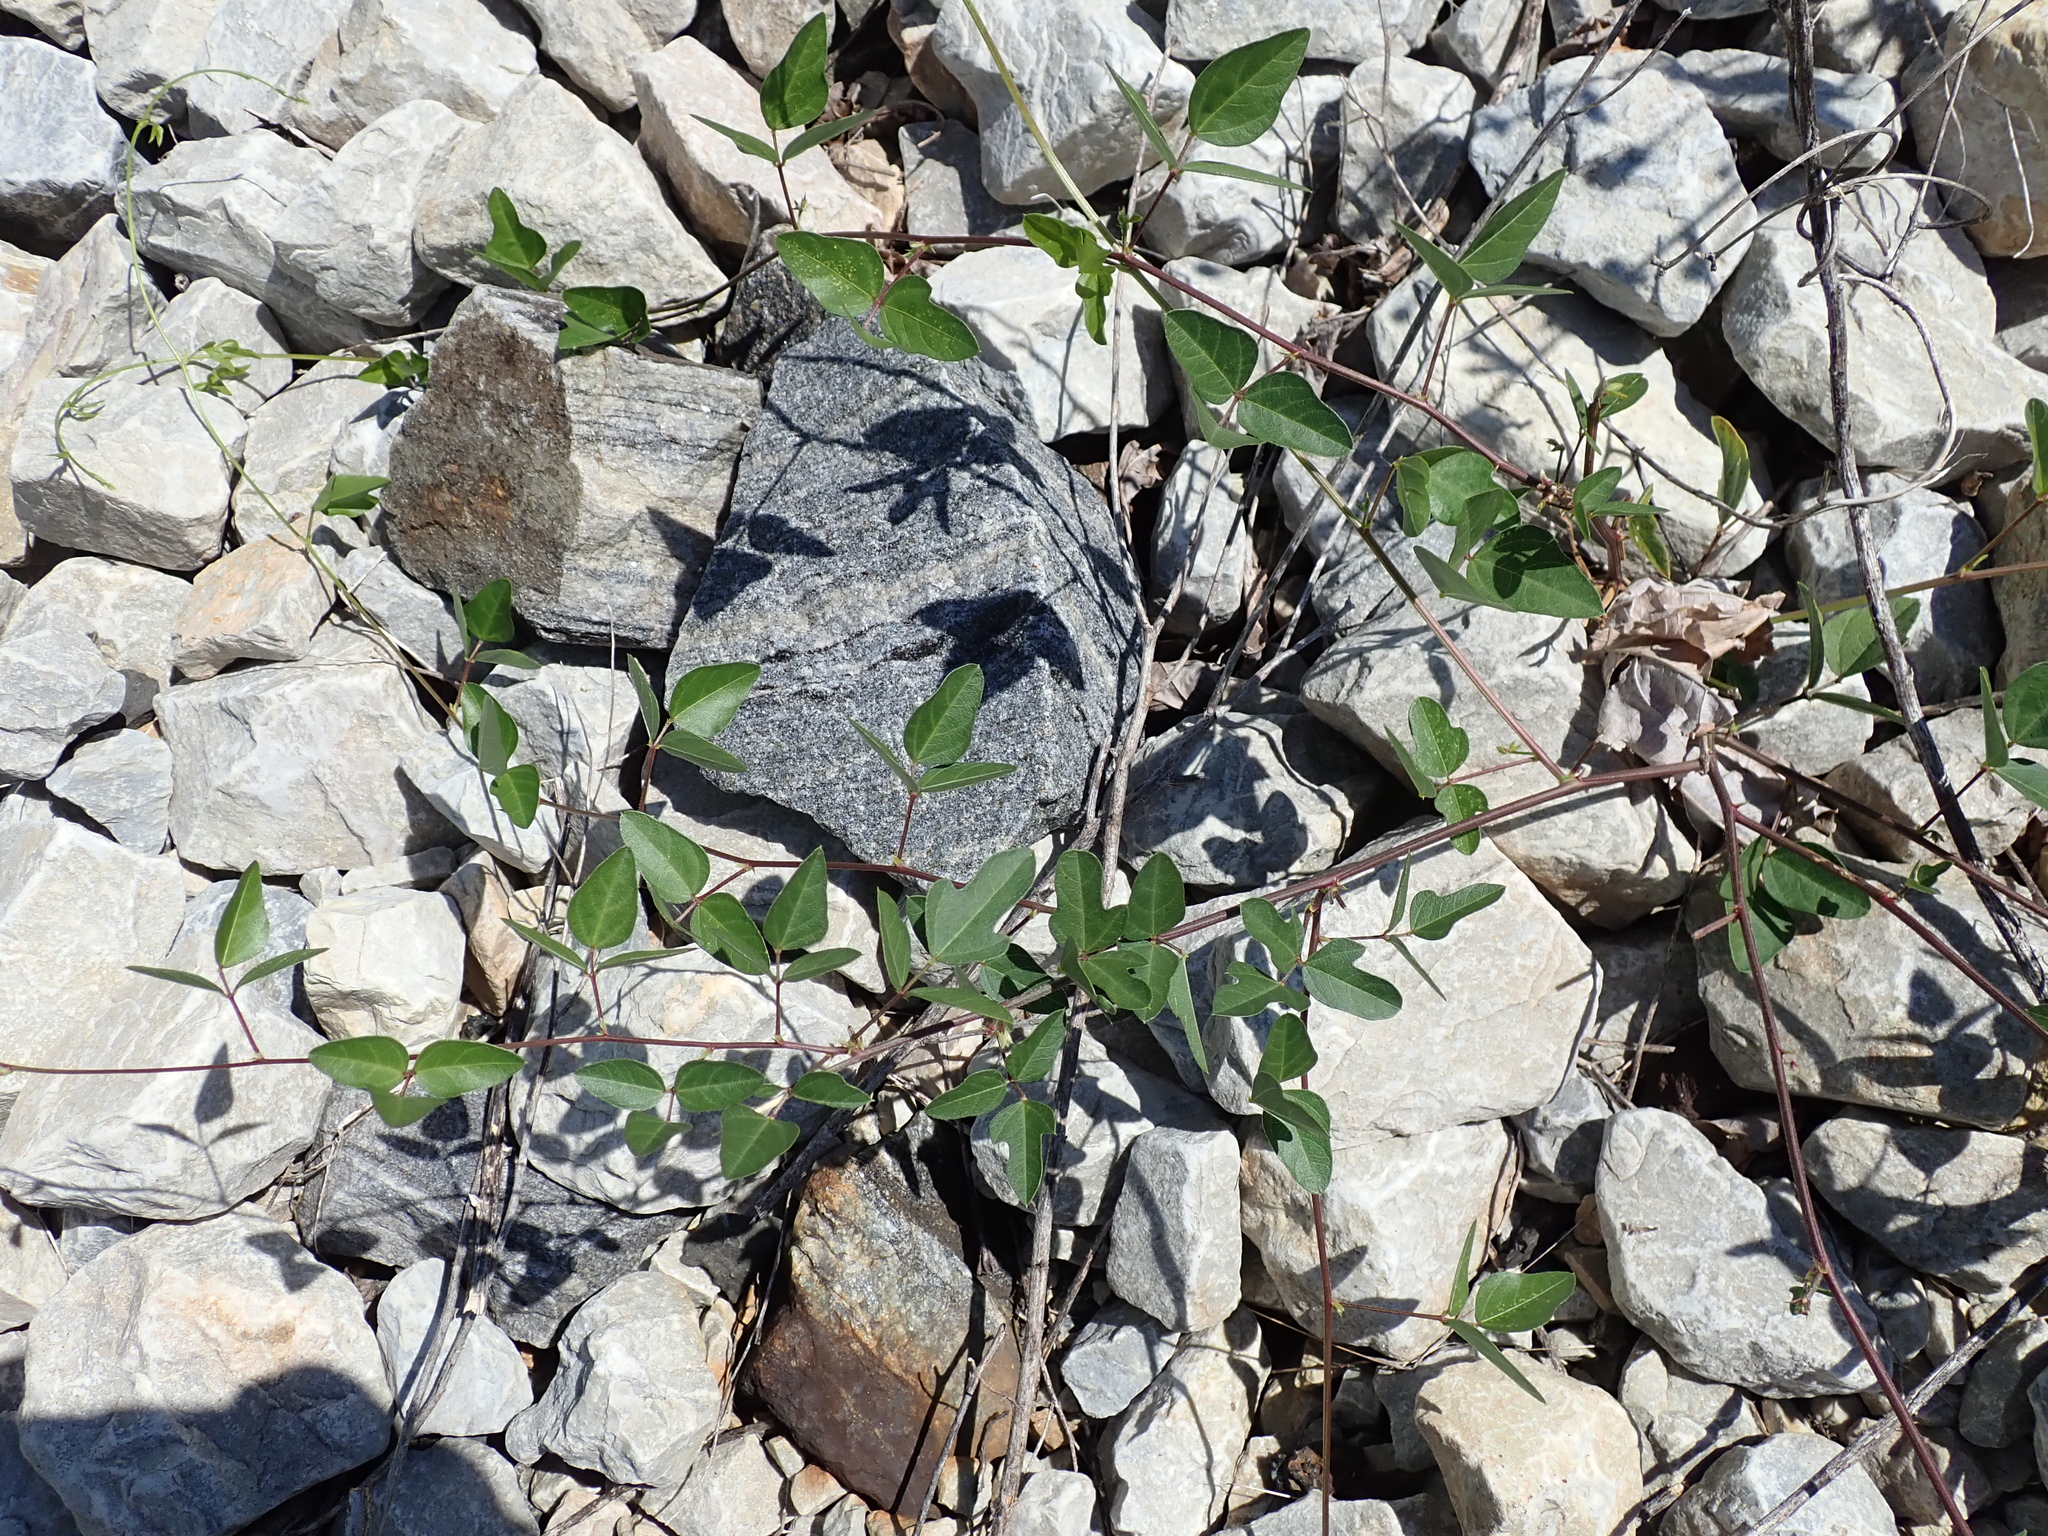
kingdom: Plantae
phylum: Tracheophyta
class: Magnoliopsida
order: Fabales
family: Fabaceae
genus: Strophostyles
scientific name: Strophostyles helvola
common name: Trailing wild bean
